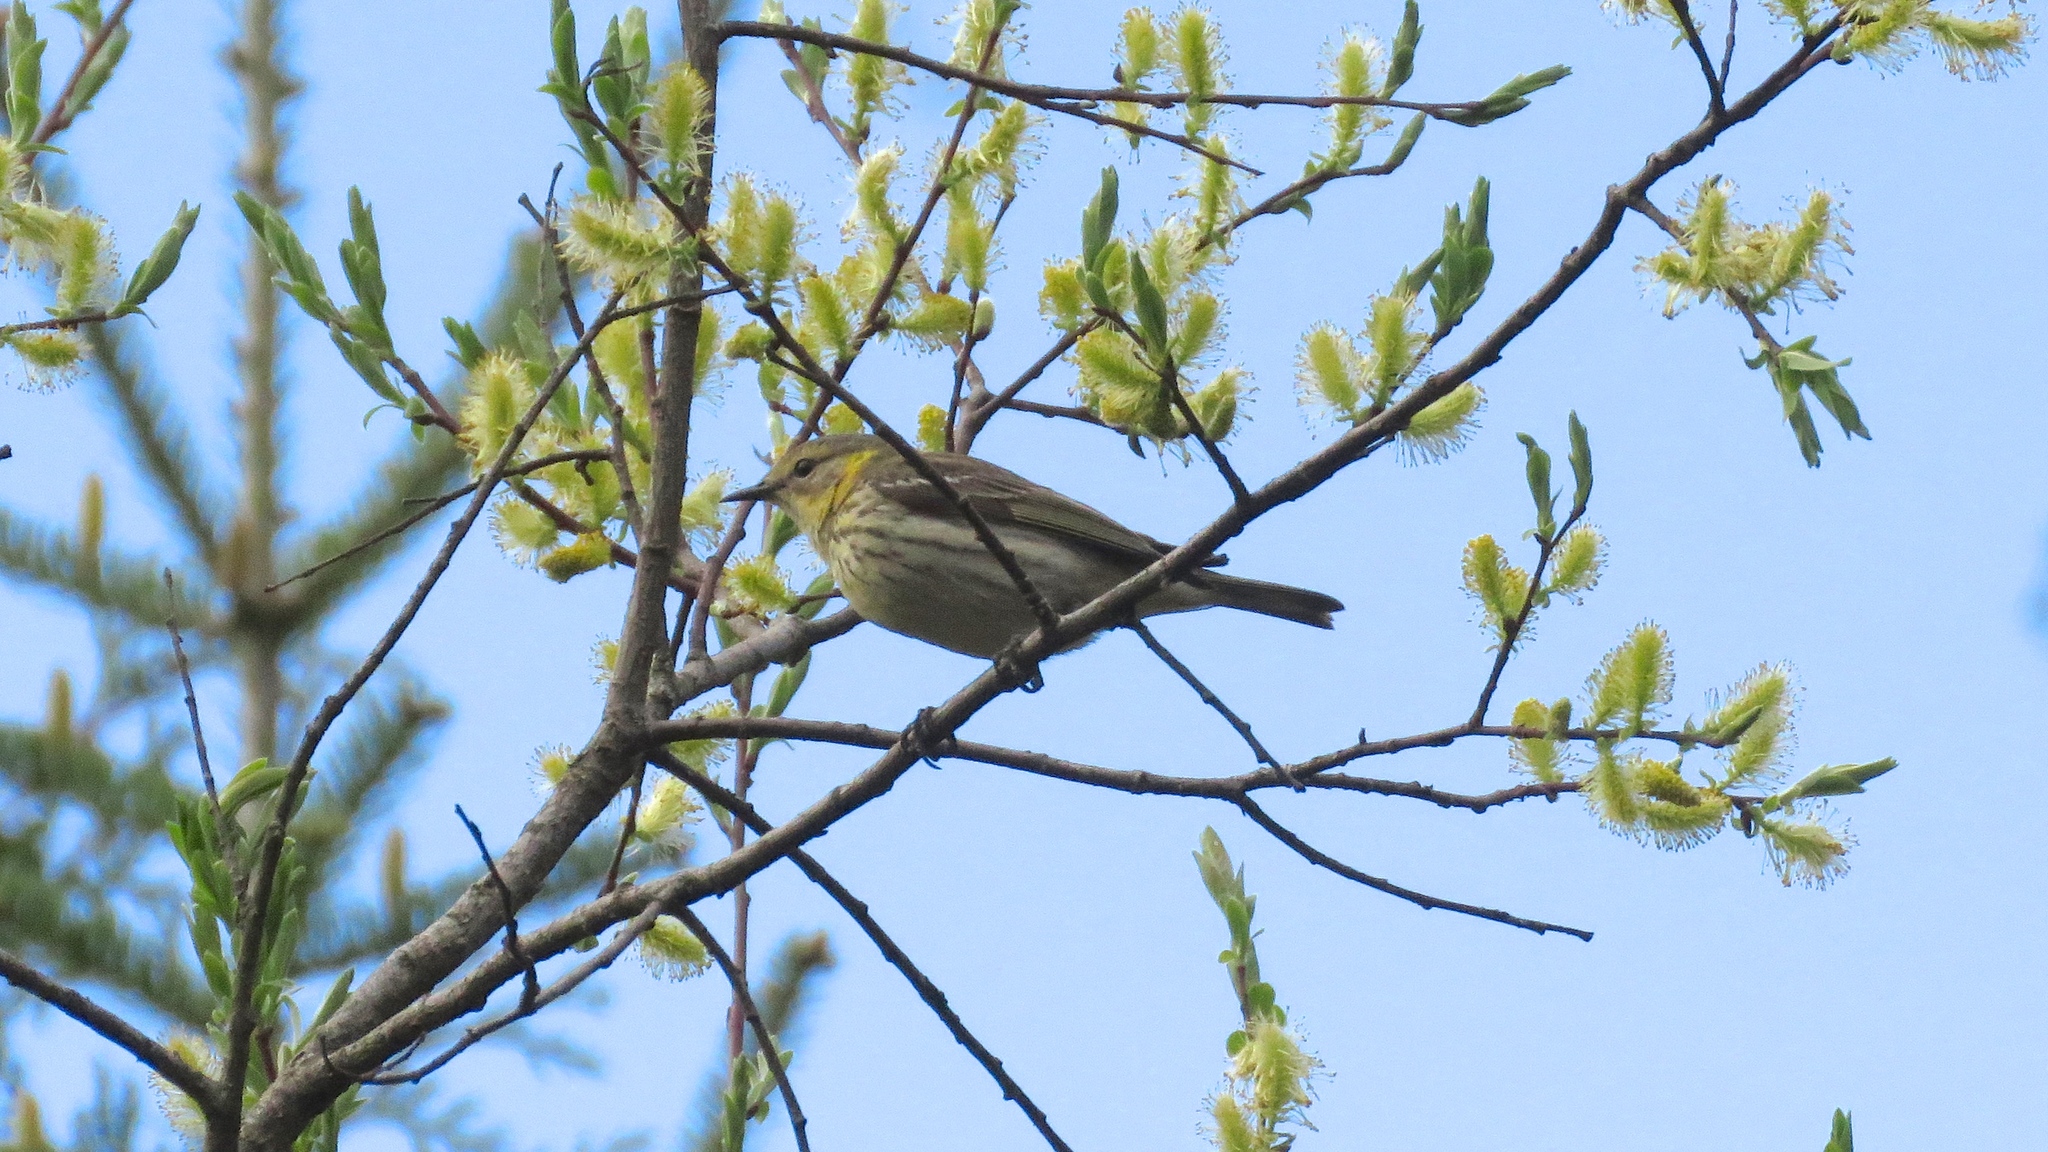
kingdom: Animalia
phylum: Chordata
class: Aves
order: Passeriformes
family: Parulidae
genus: Setophaga
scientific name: Setophaga tigrina
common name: Cape may warbler
